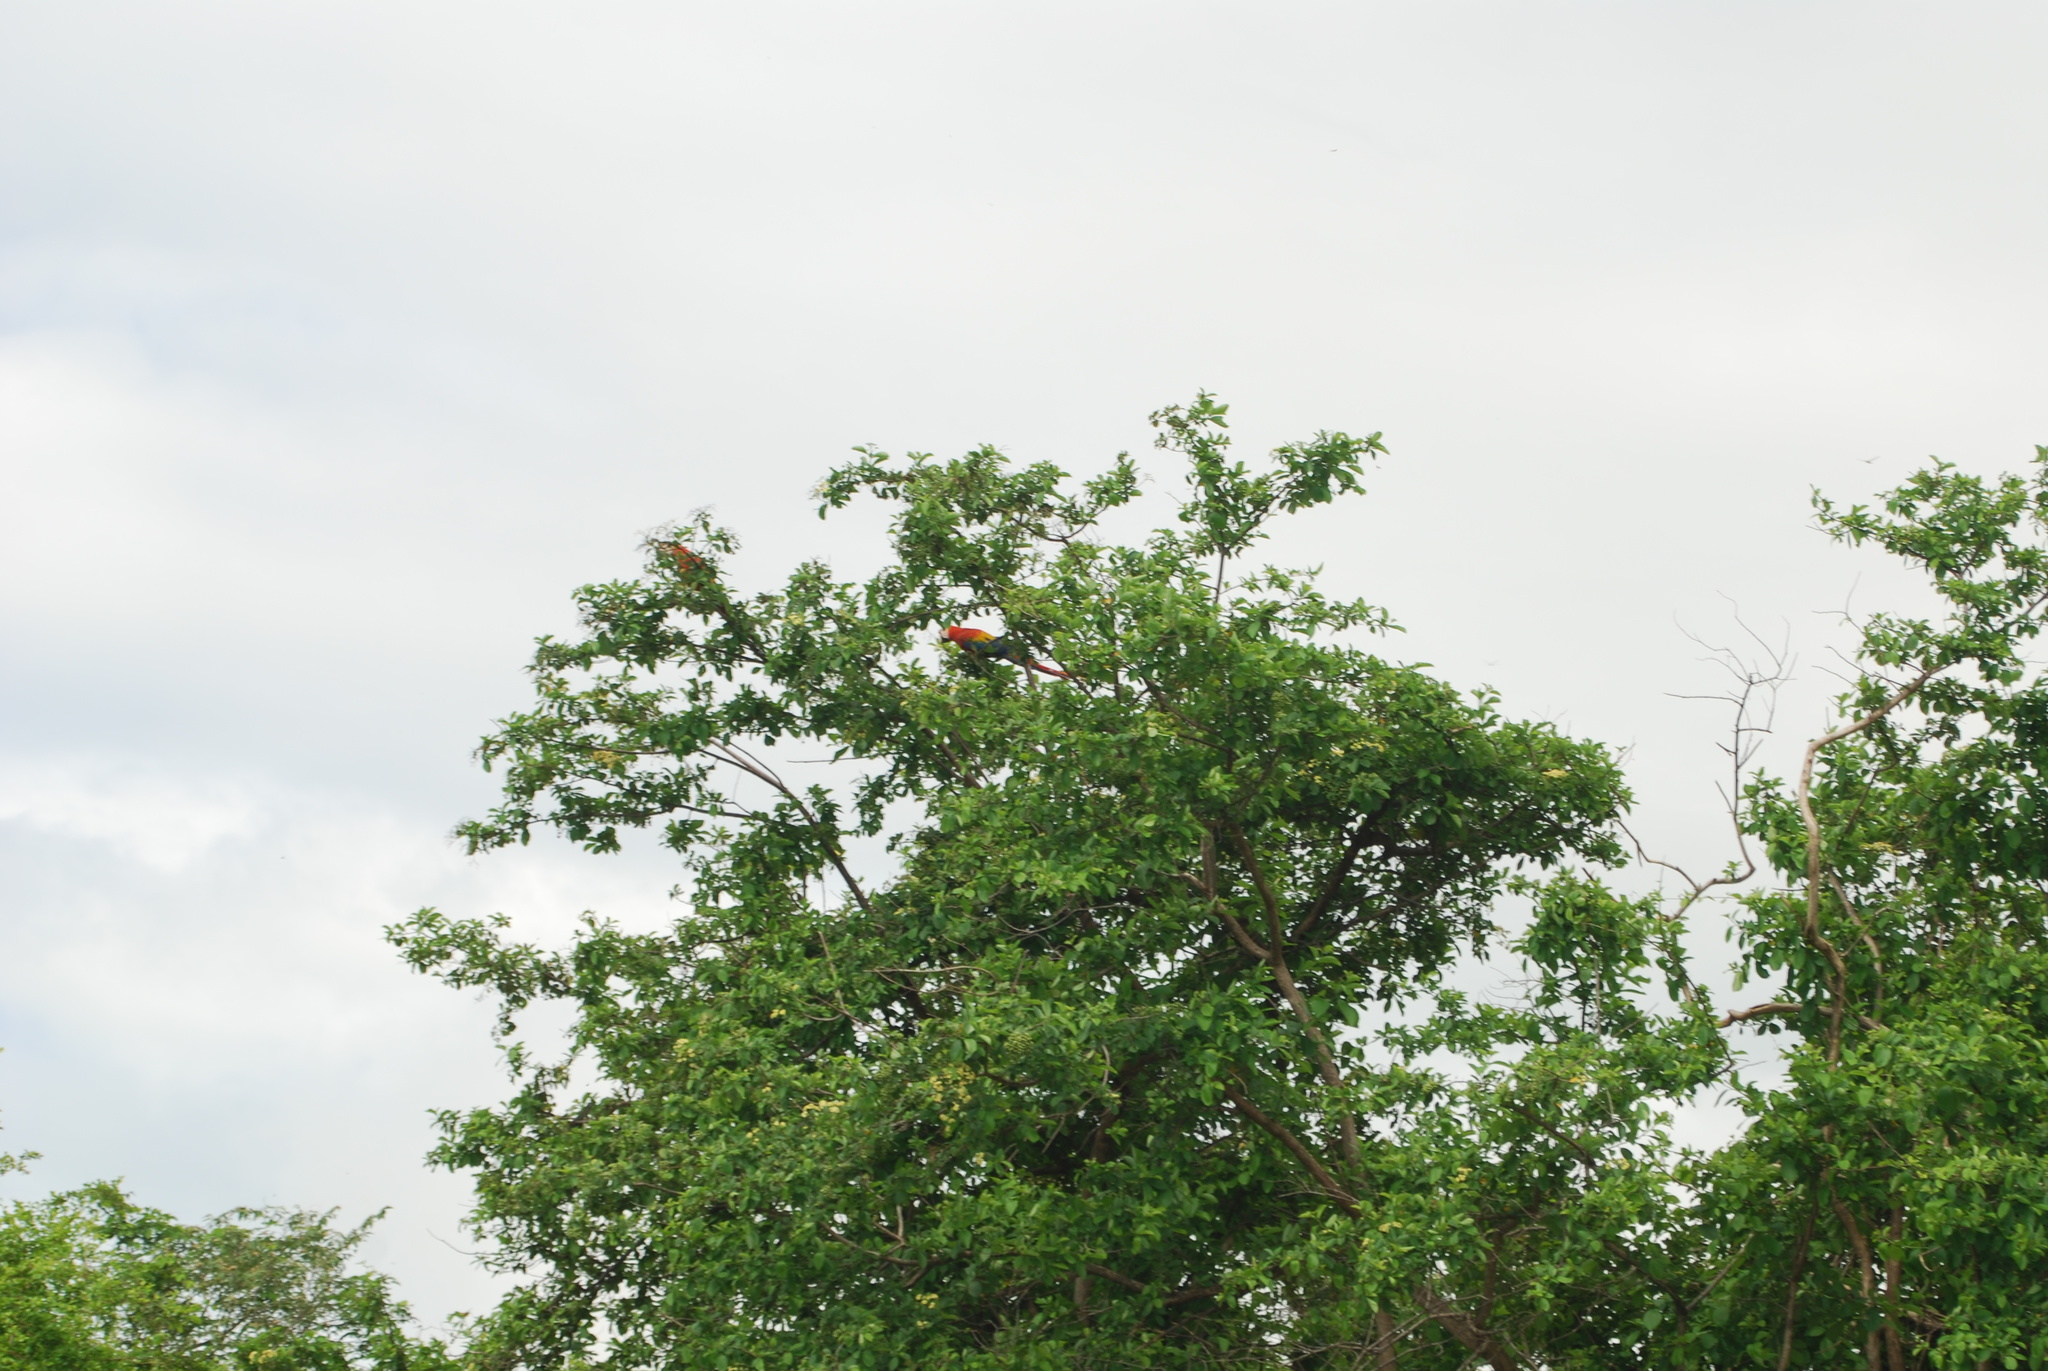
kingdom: Animalia
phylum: Chordata
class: Aves
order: Psittaciformes
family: Psittacidae
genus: Ara
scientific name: Ara macao
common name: Scarlet macaw
